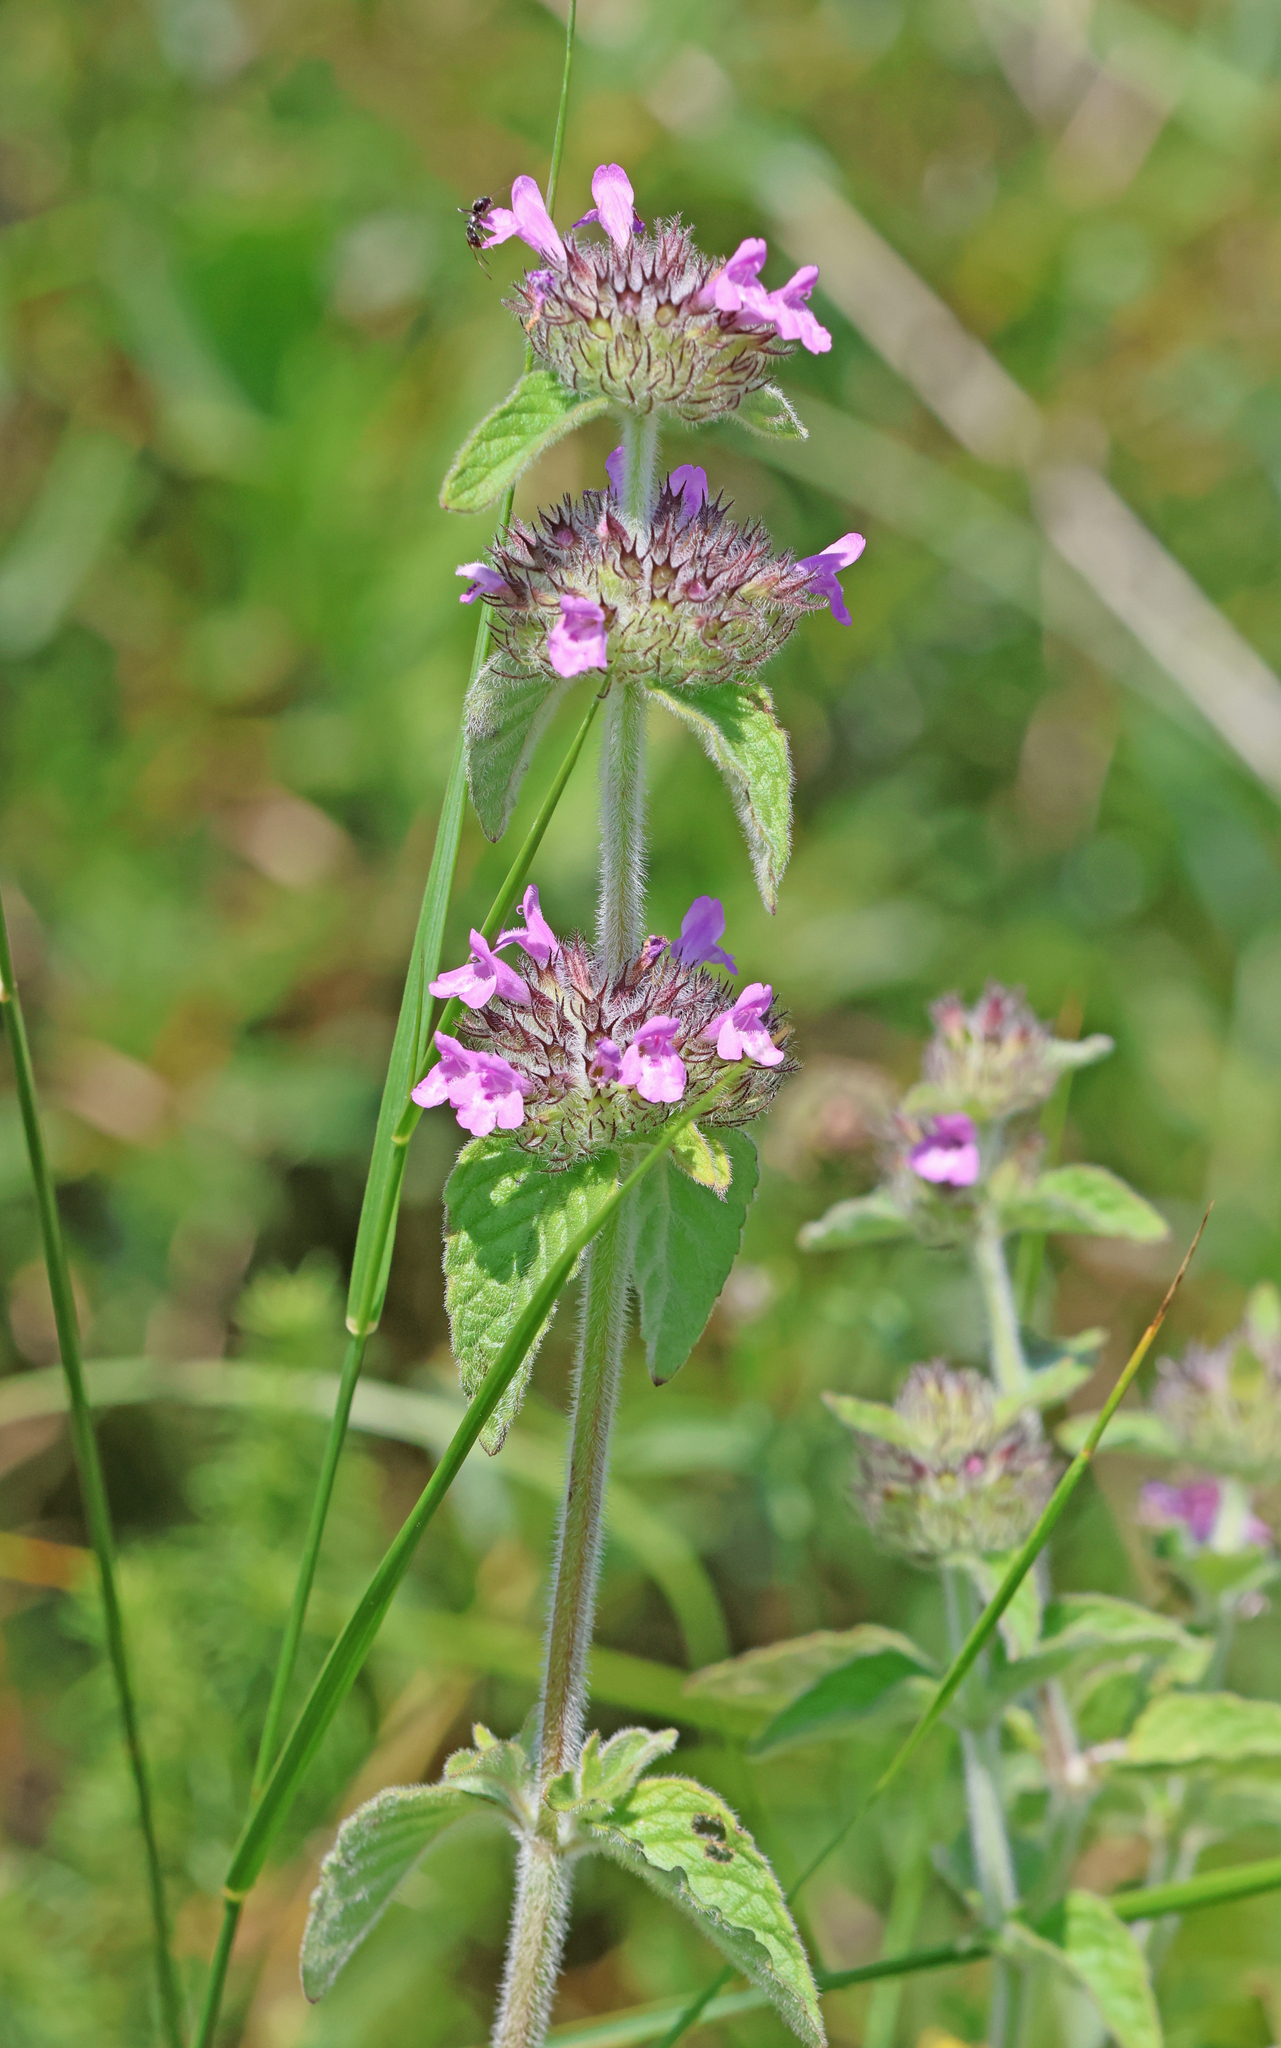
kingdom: Plantae
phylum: Tracheophyta
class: Magnoliopsida
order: Lamiales
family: Lamiaceae
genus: Clinopodium
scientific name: Clinopodium vulgare
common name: Wild basil
